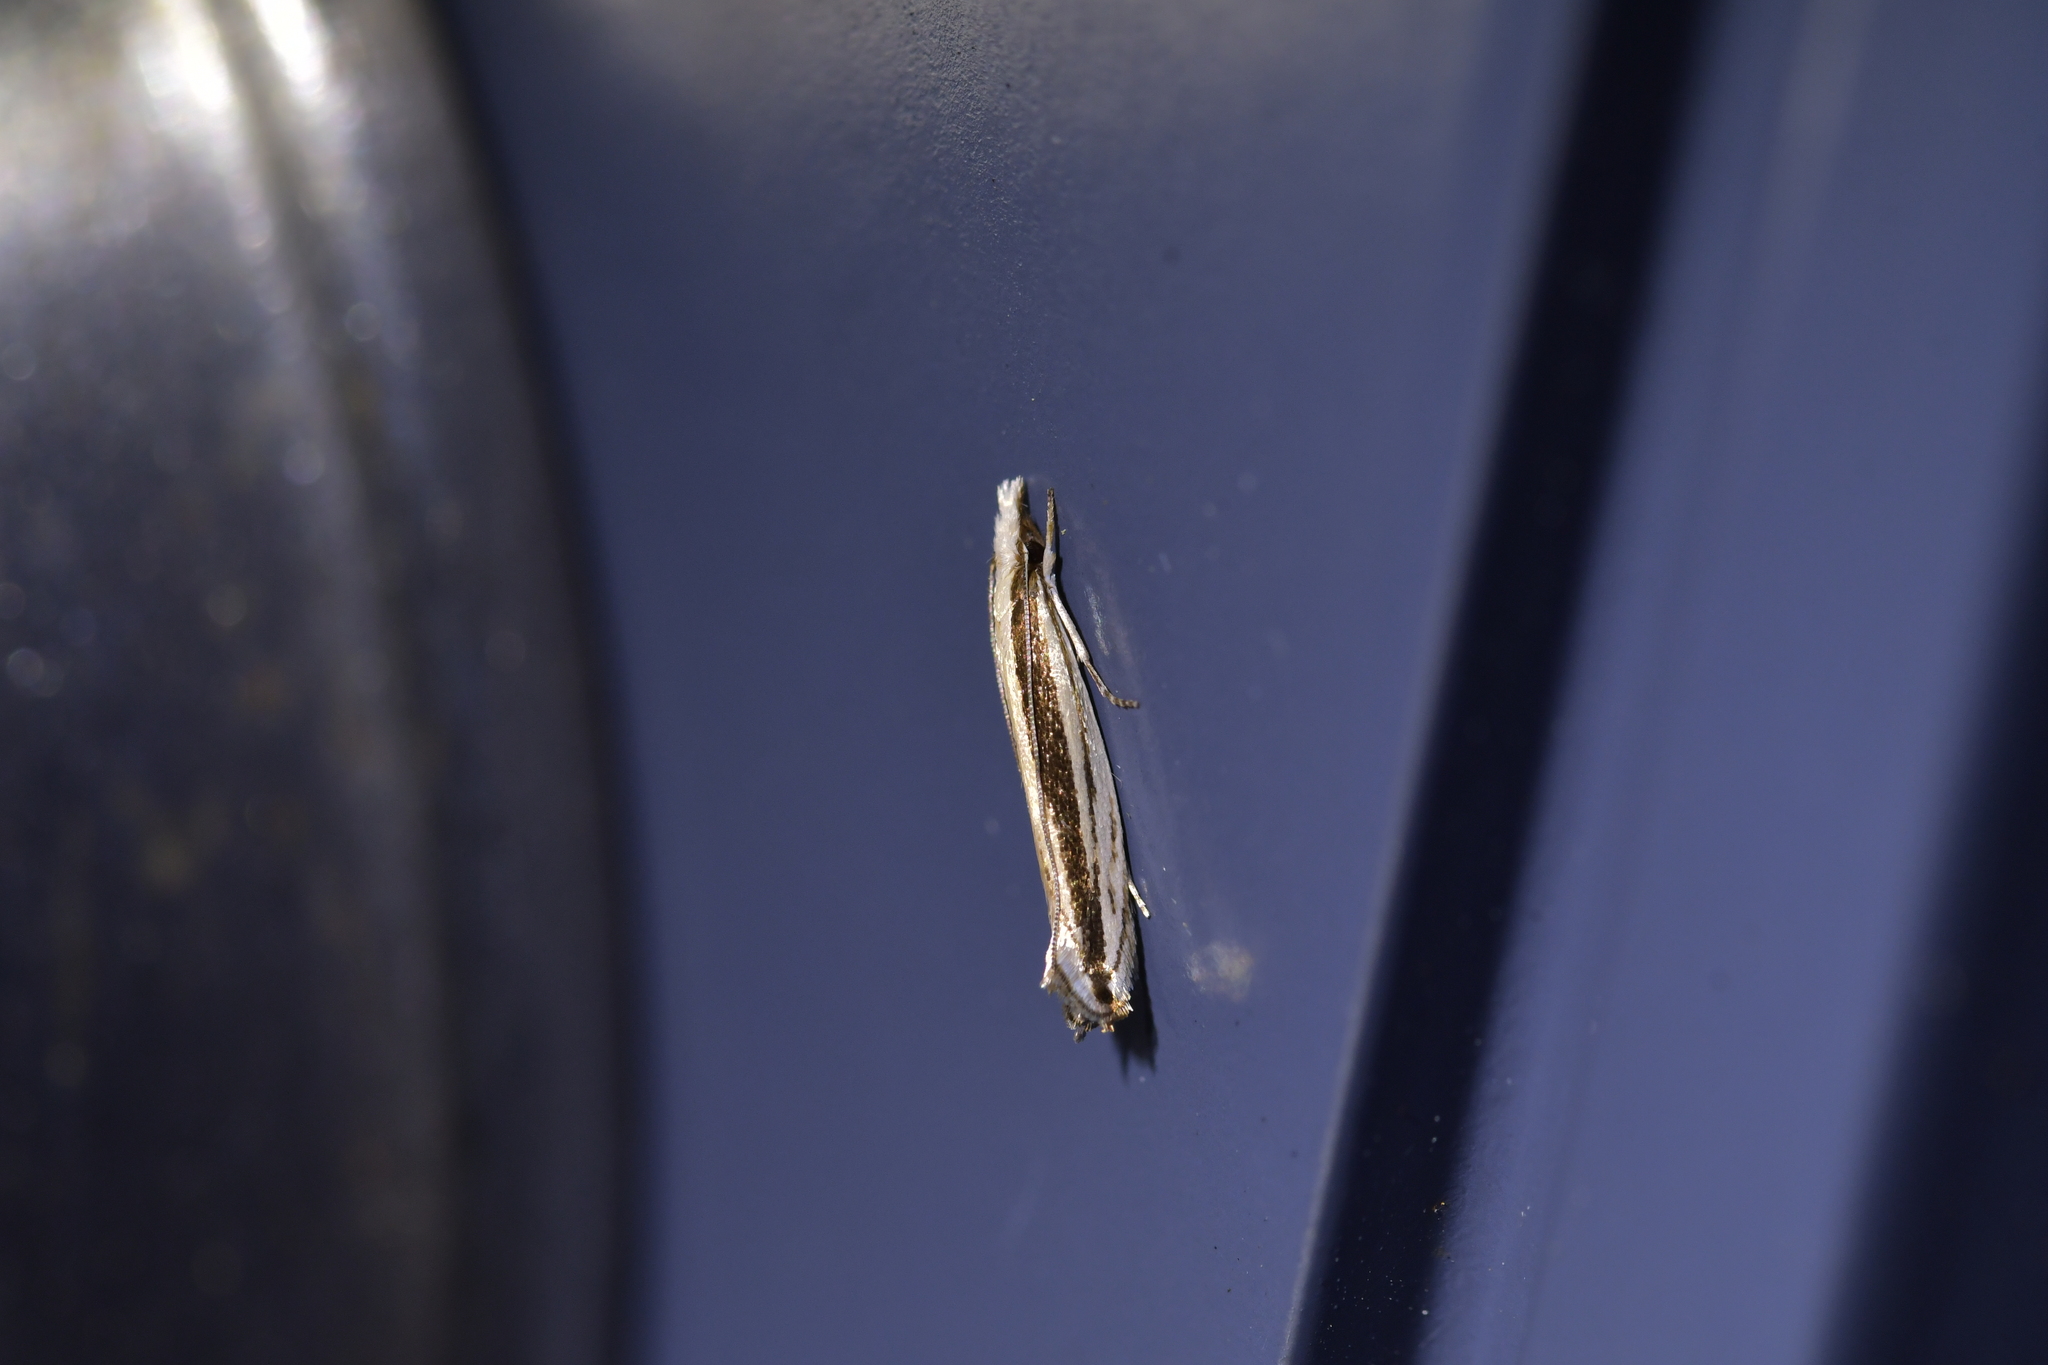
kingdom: Animalia
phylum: Arthropoda
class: Insecta
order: Lepidoptera
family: Tineidae
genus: Erechthias
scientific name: Erechthias stilbella
